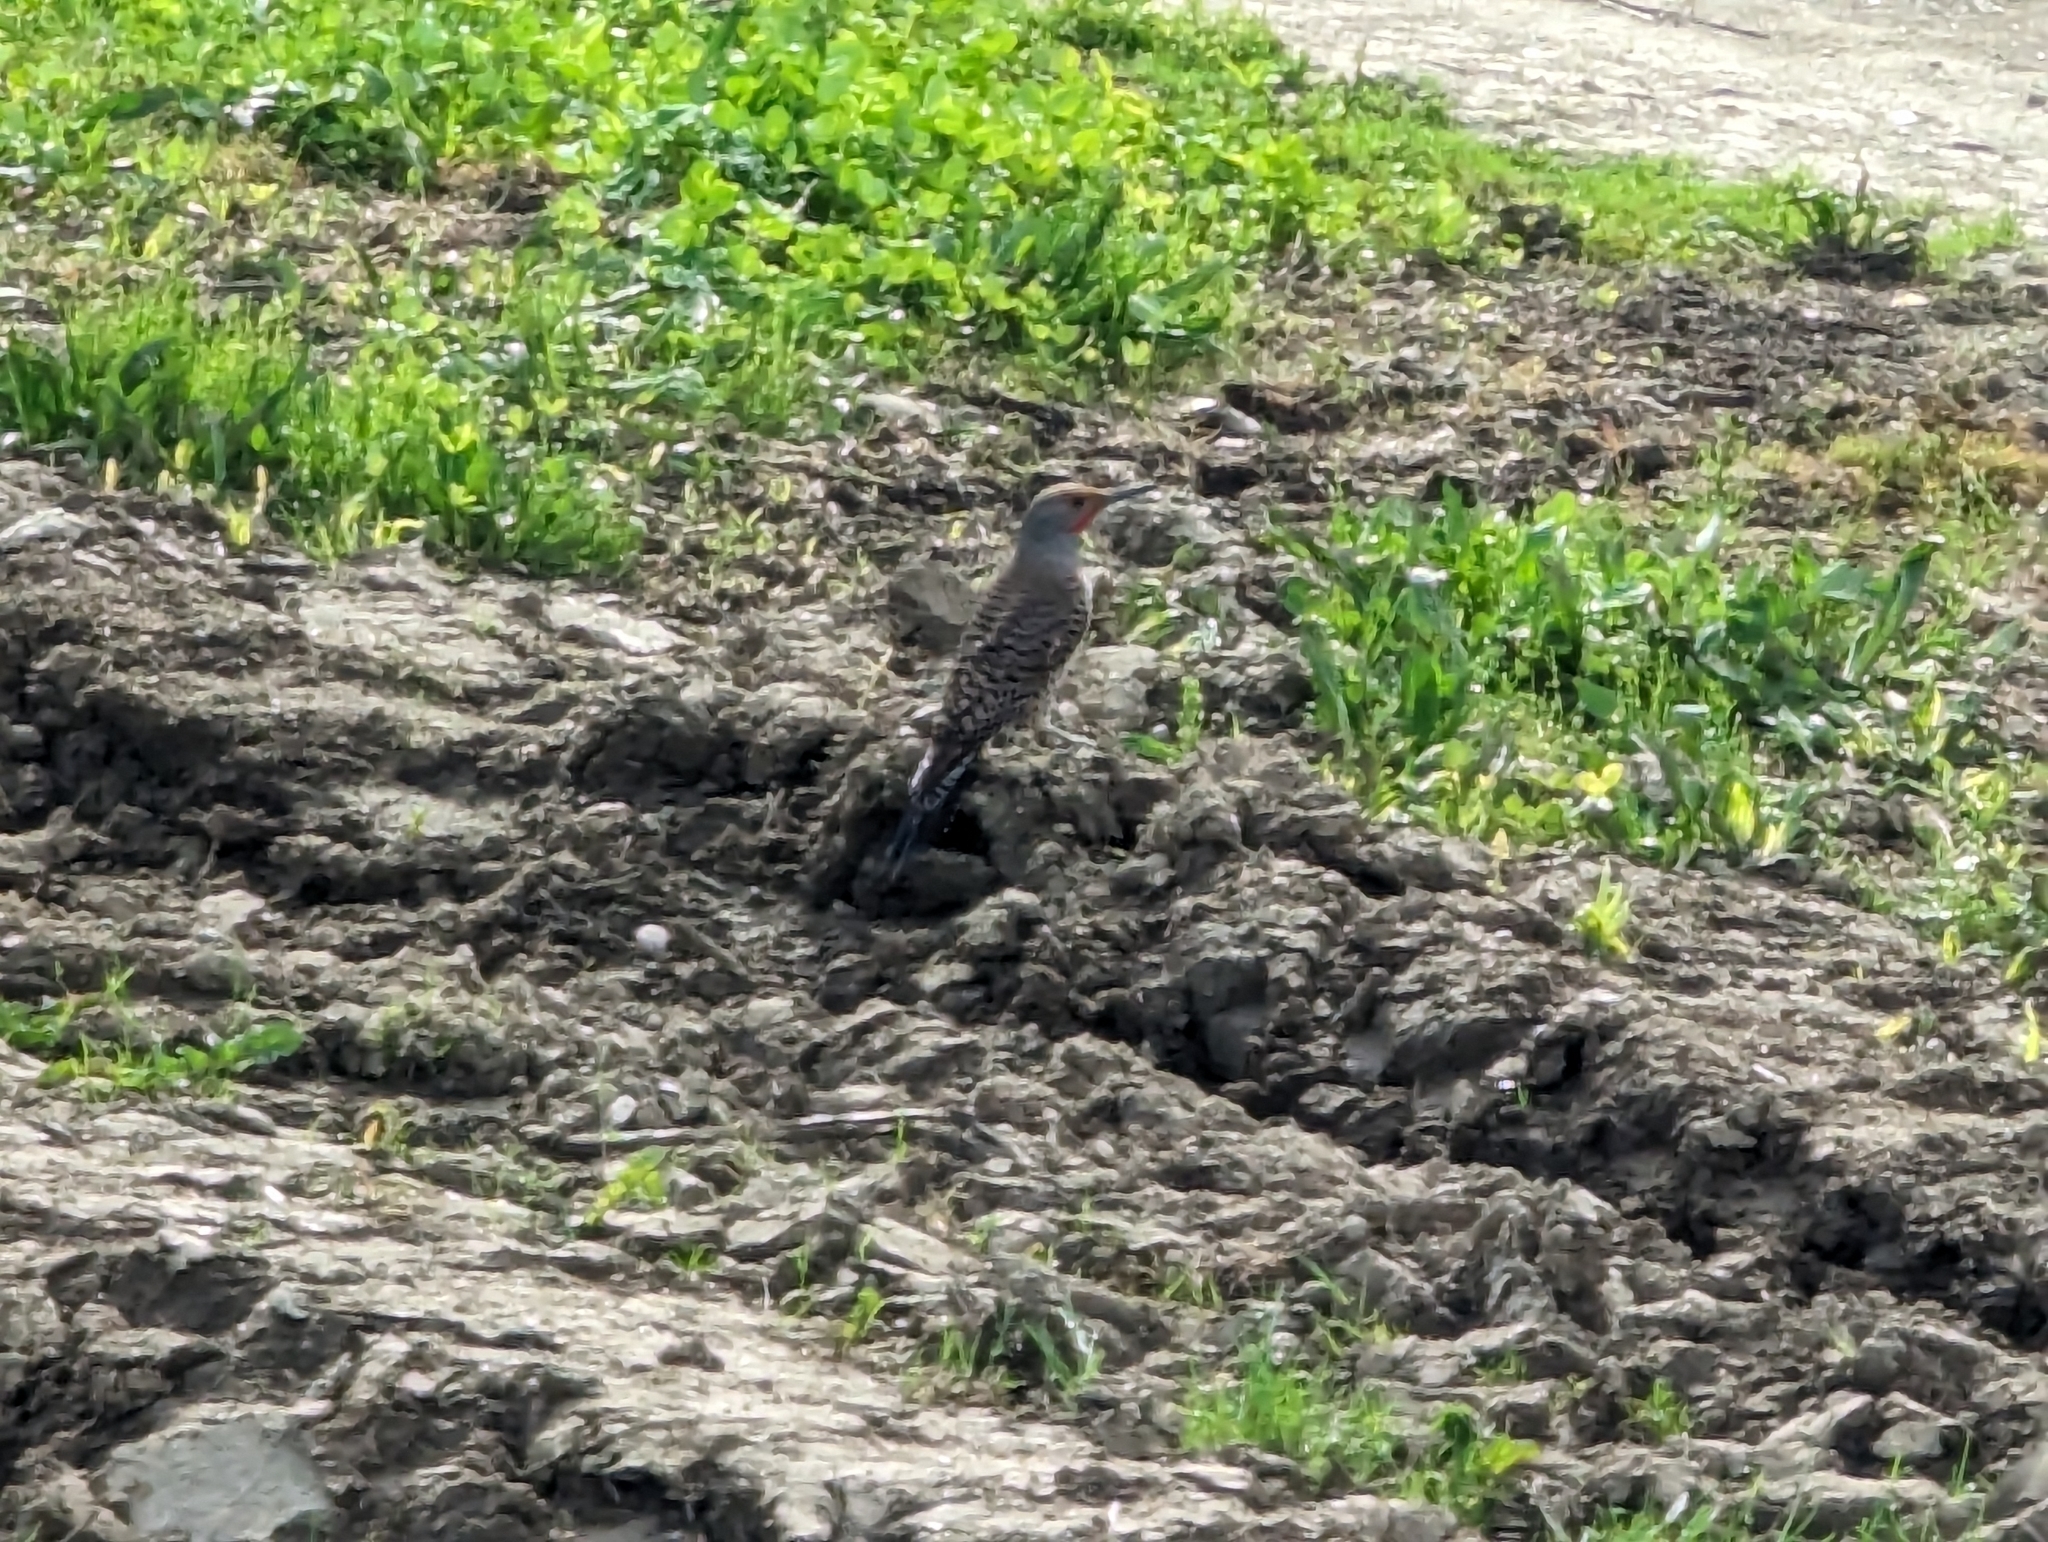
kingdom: Animalia
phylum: Chordata
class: Aves
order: Piciformes
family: Picidae
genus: Colaptes
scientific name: Colaptes auratus
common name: Northern flicker
